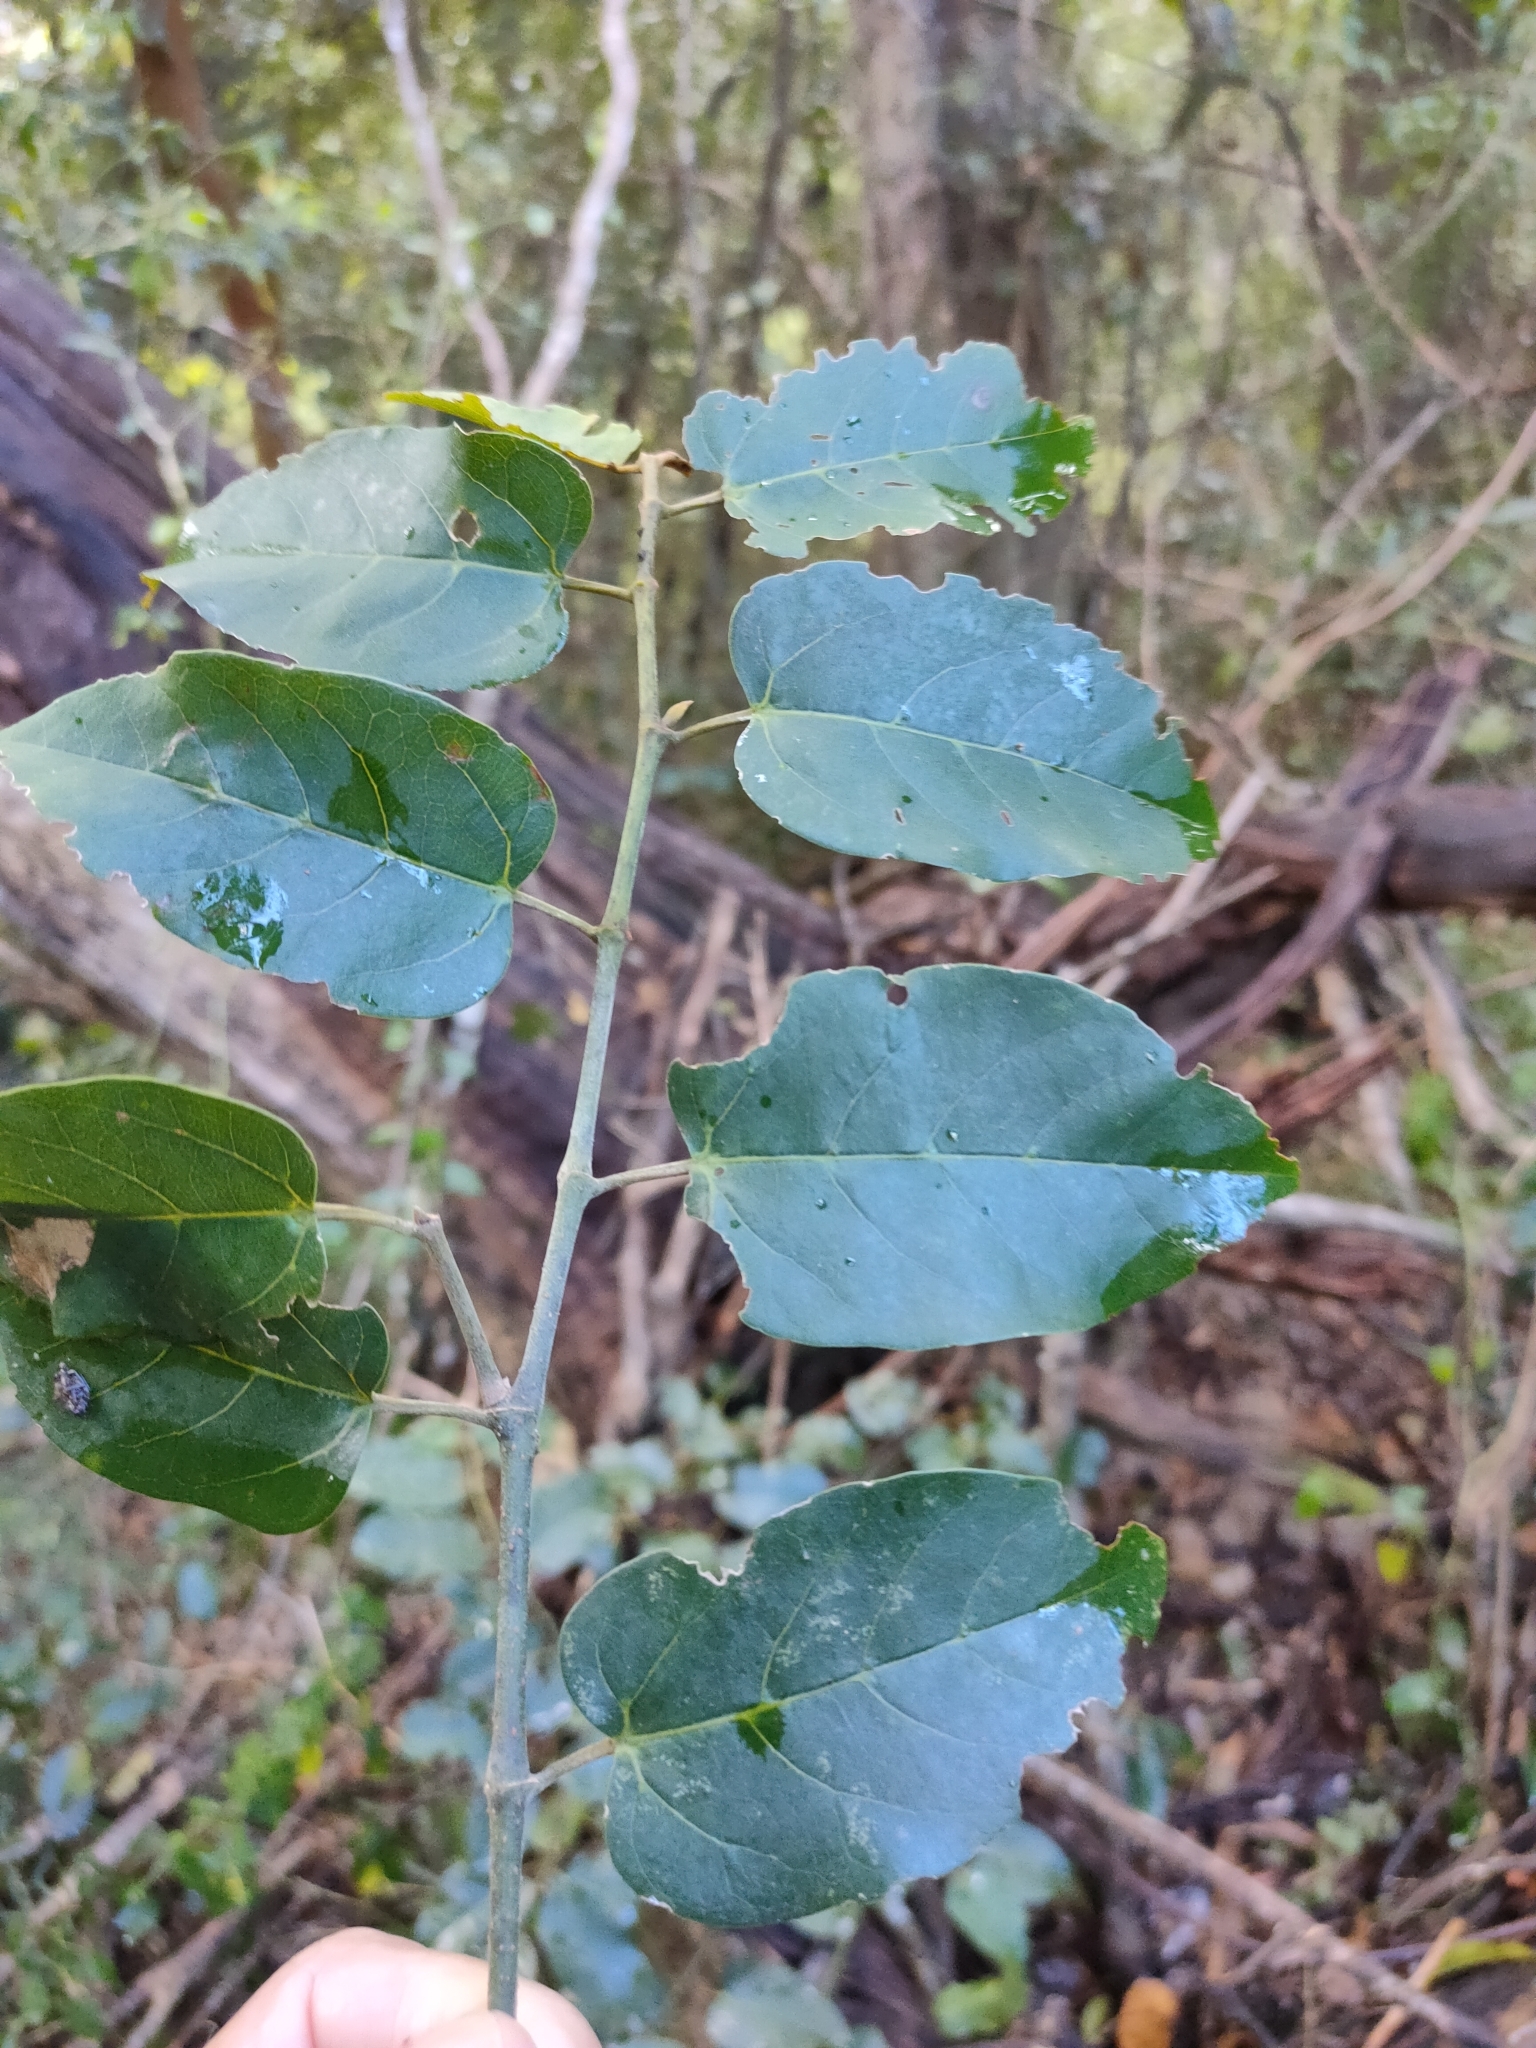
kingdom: Plantae
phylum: Tracheophyta
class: Magnoliopsida
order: Vitales
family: Vitaceae
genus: Cissus
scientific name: Cissus antarctica
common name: Kangaroo vine
